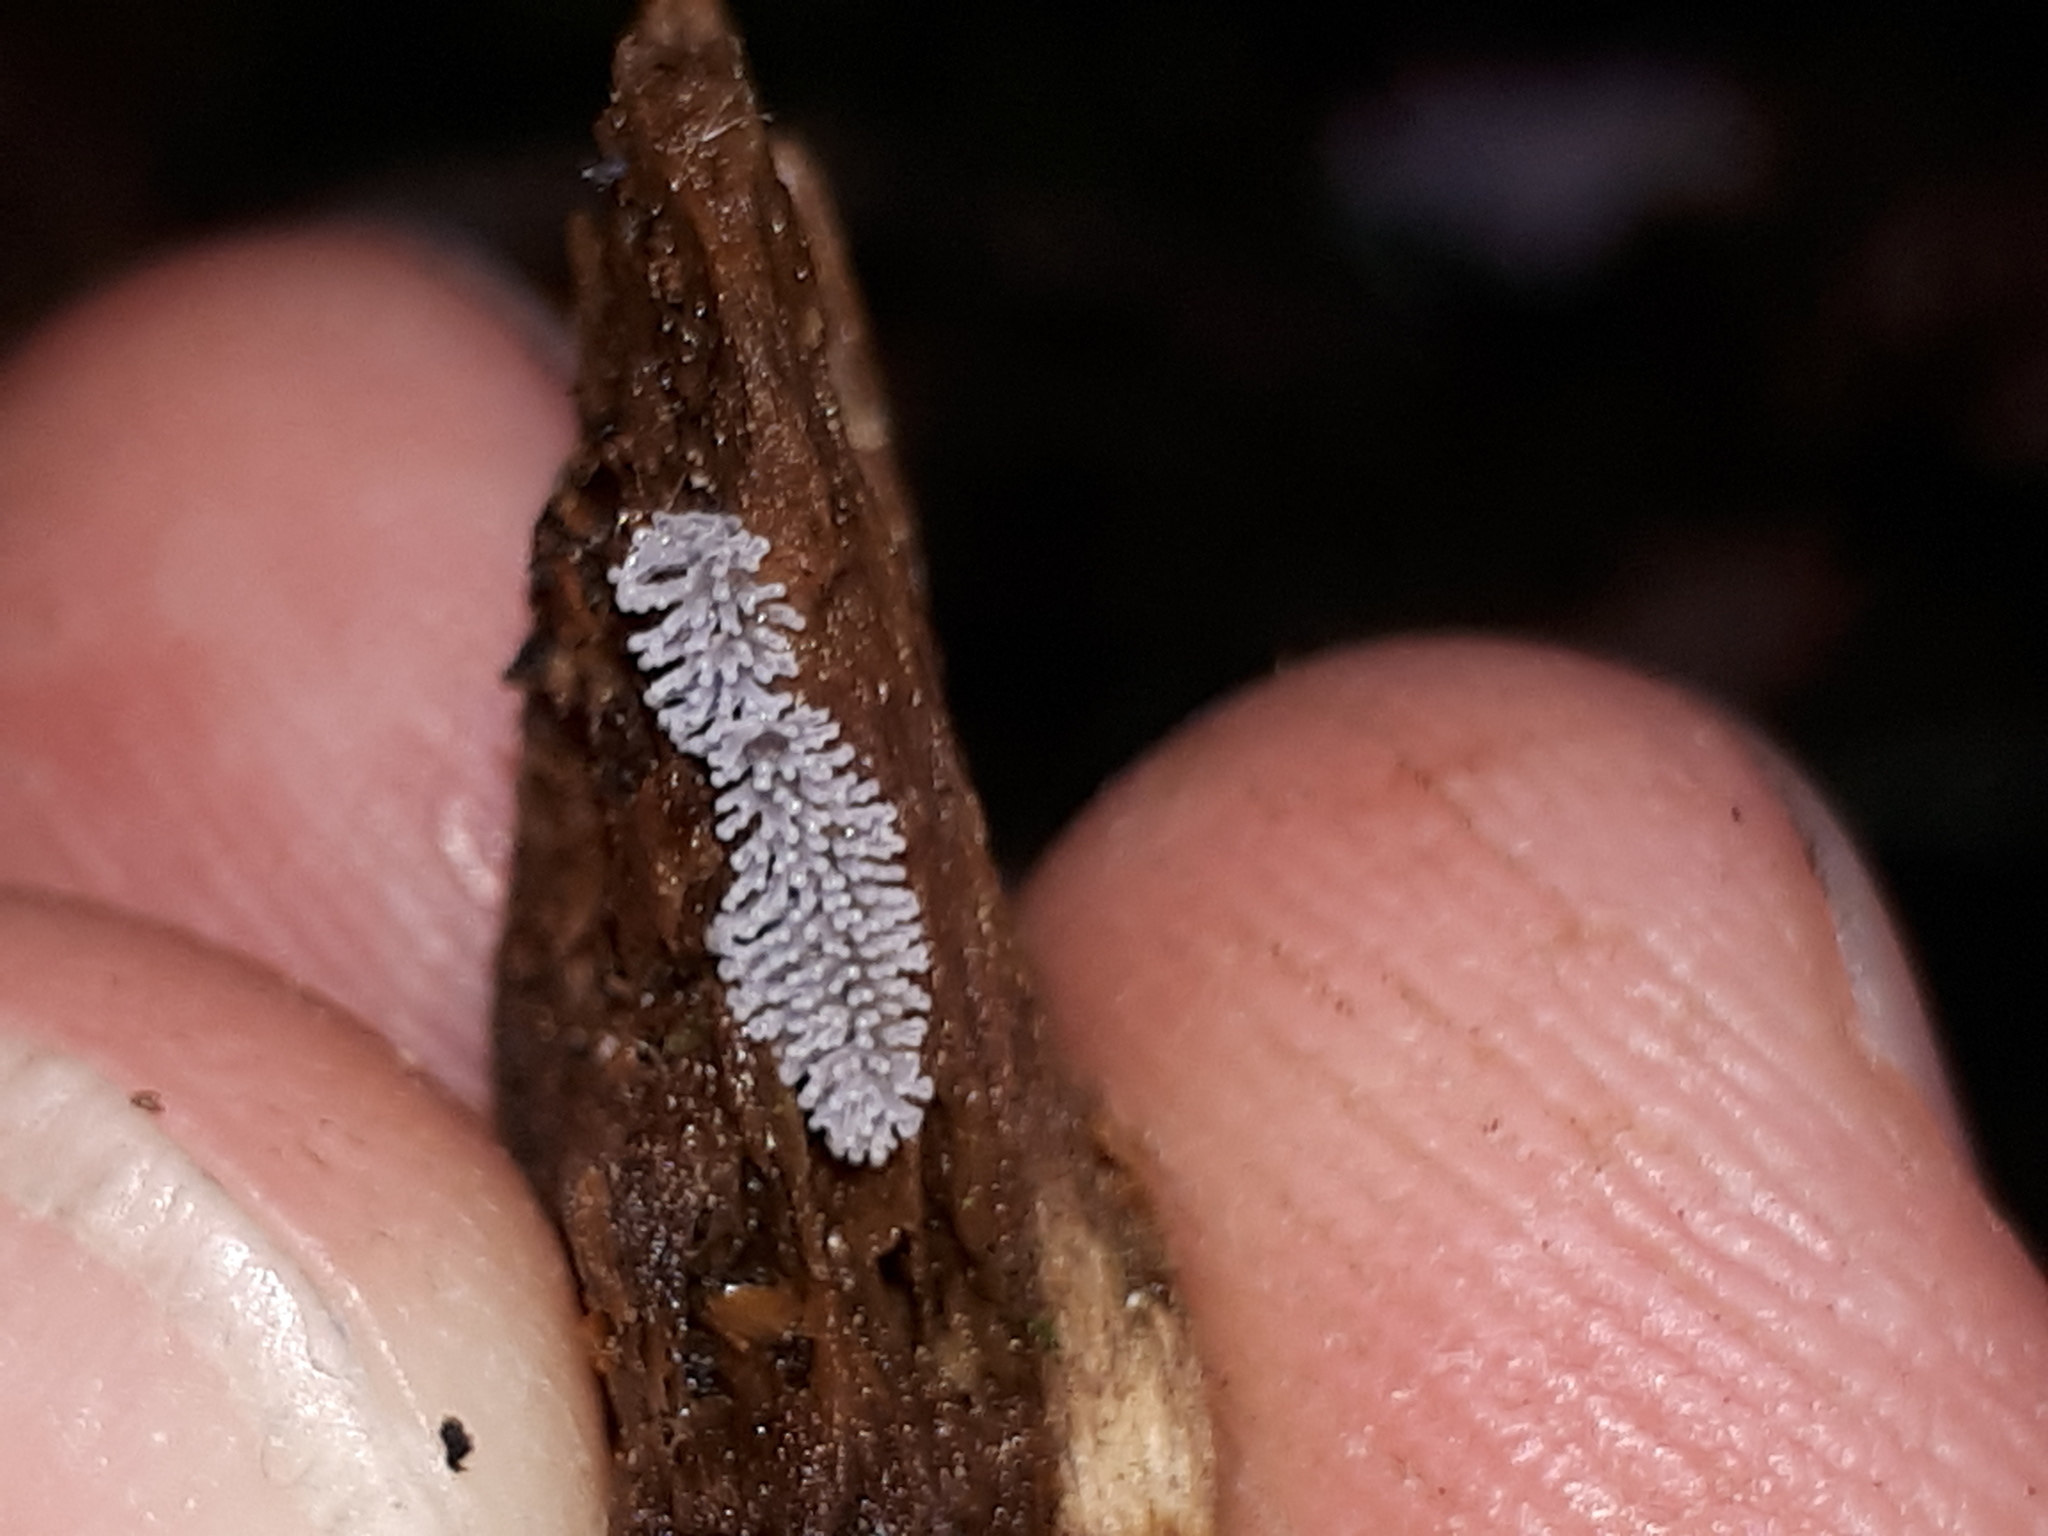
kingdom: Protozoa
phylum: Mycetozoa
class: Protosteliomycetes
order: Ceratiomyxales
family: Ceratiomyxaceae
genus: Ceratiomyxa
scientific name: Ceratiomyxa fruticulosa
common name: Honeycomb coral slime mold
